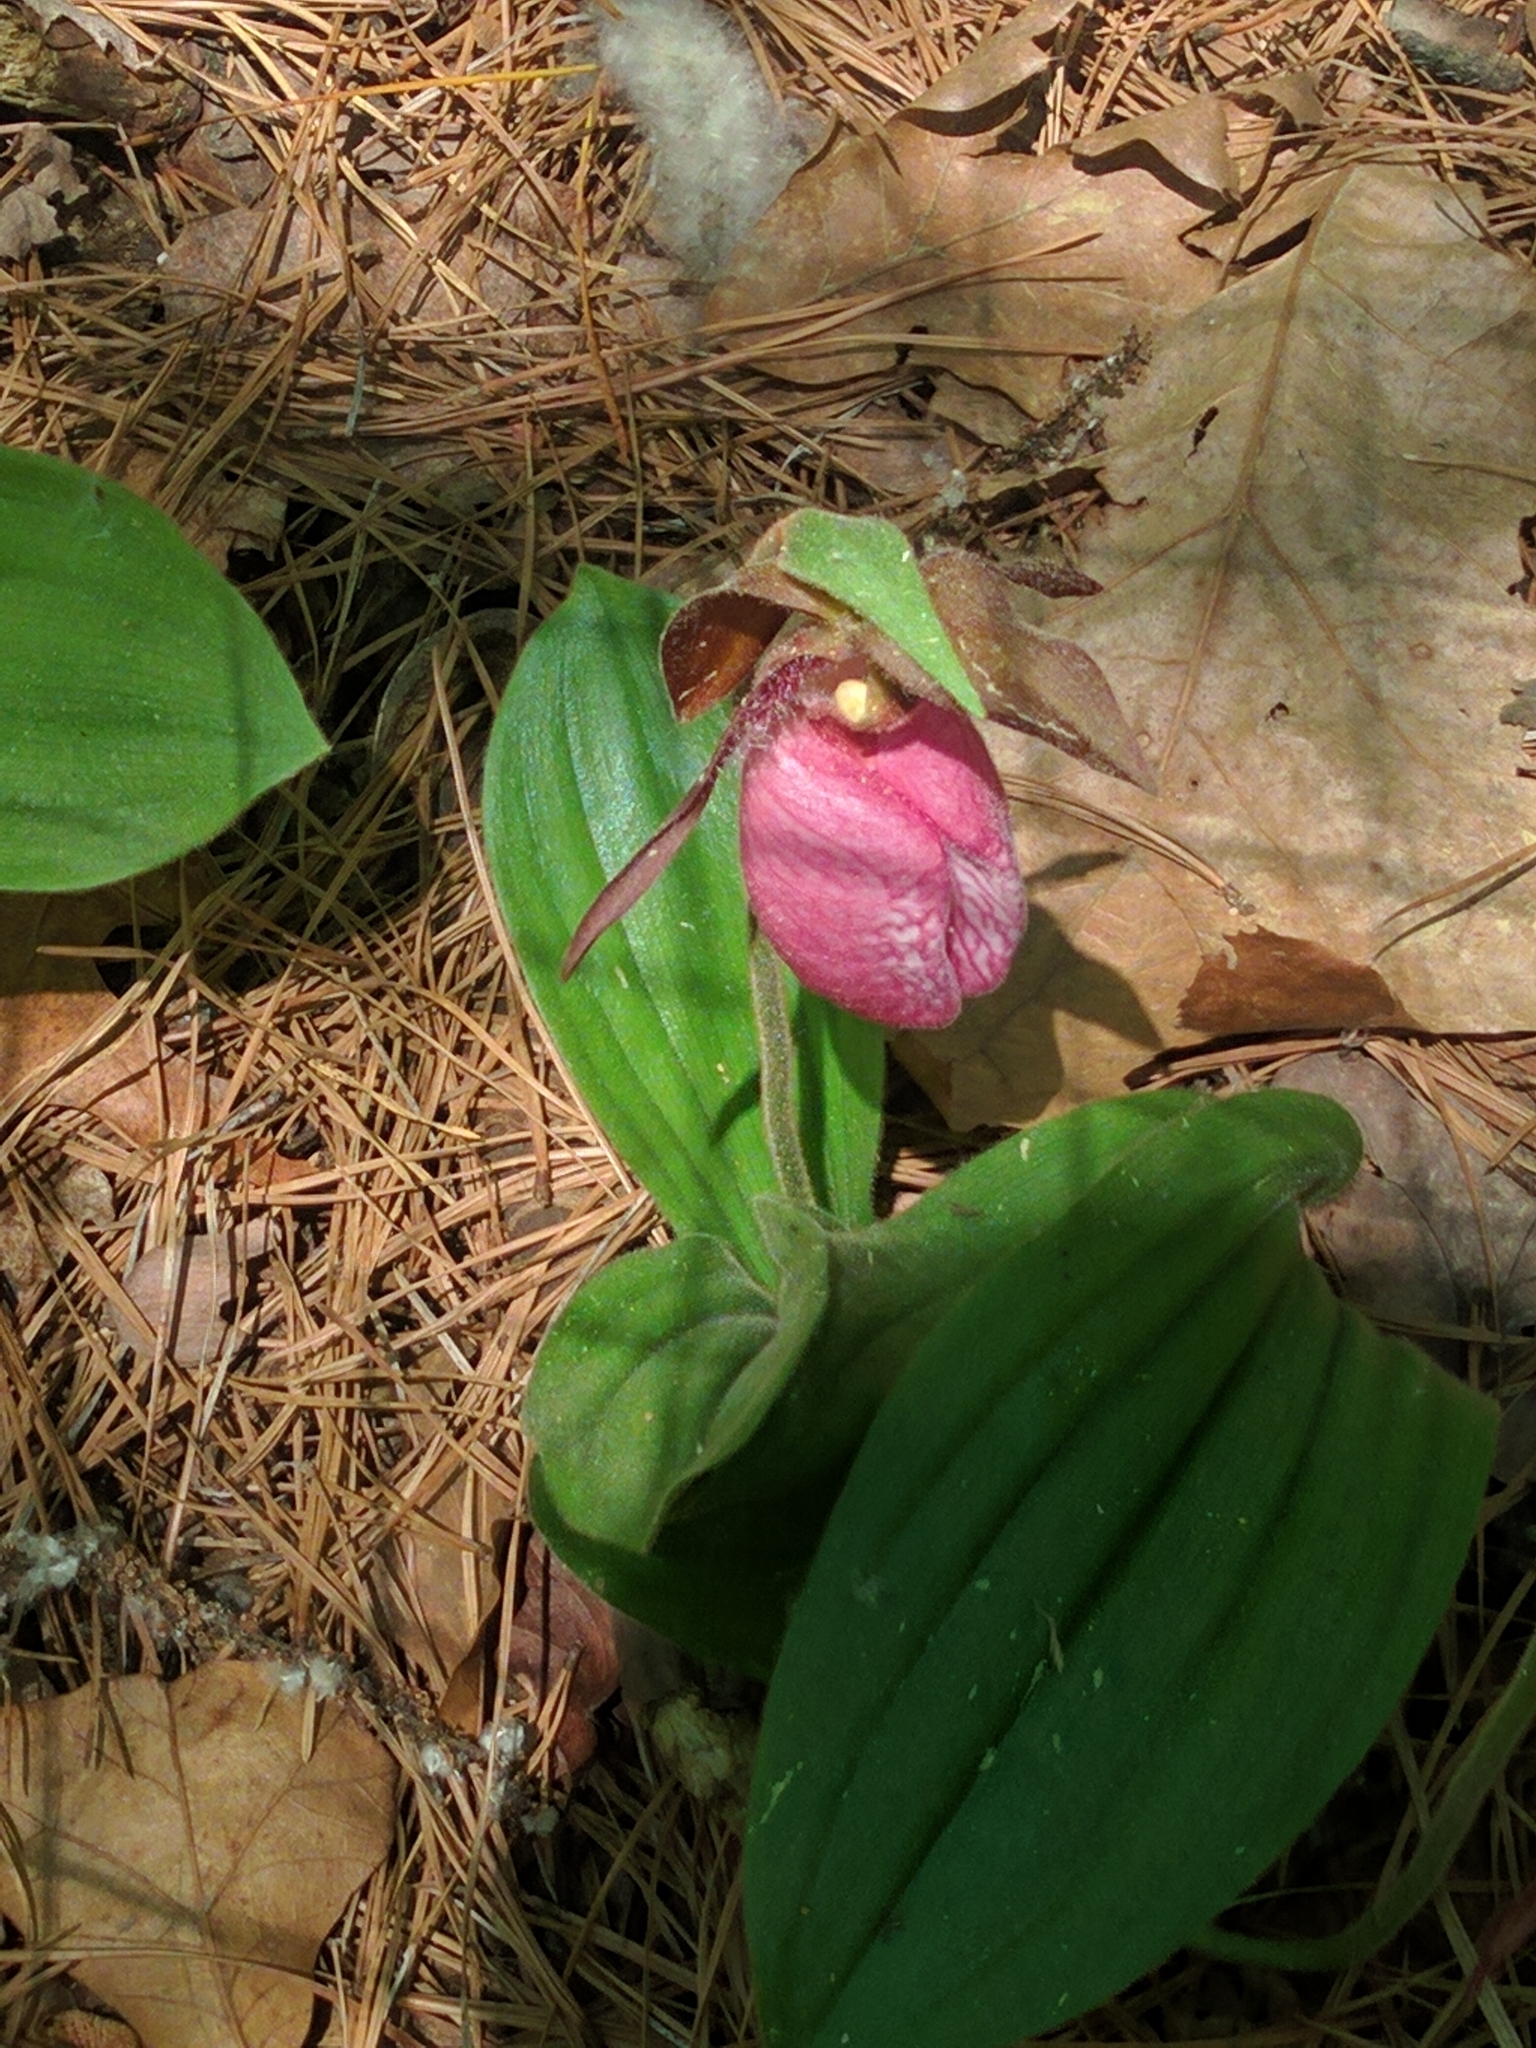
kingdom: Plantae
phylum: Tracheophyta
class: Liliopsida
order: Asparagales
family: Orchidaceae
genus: Cypripedium
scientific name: Cypripedium acaule
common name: Pink lady's-slipper
